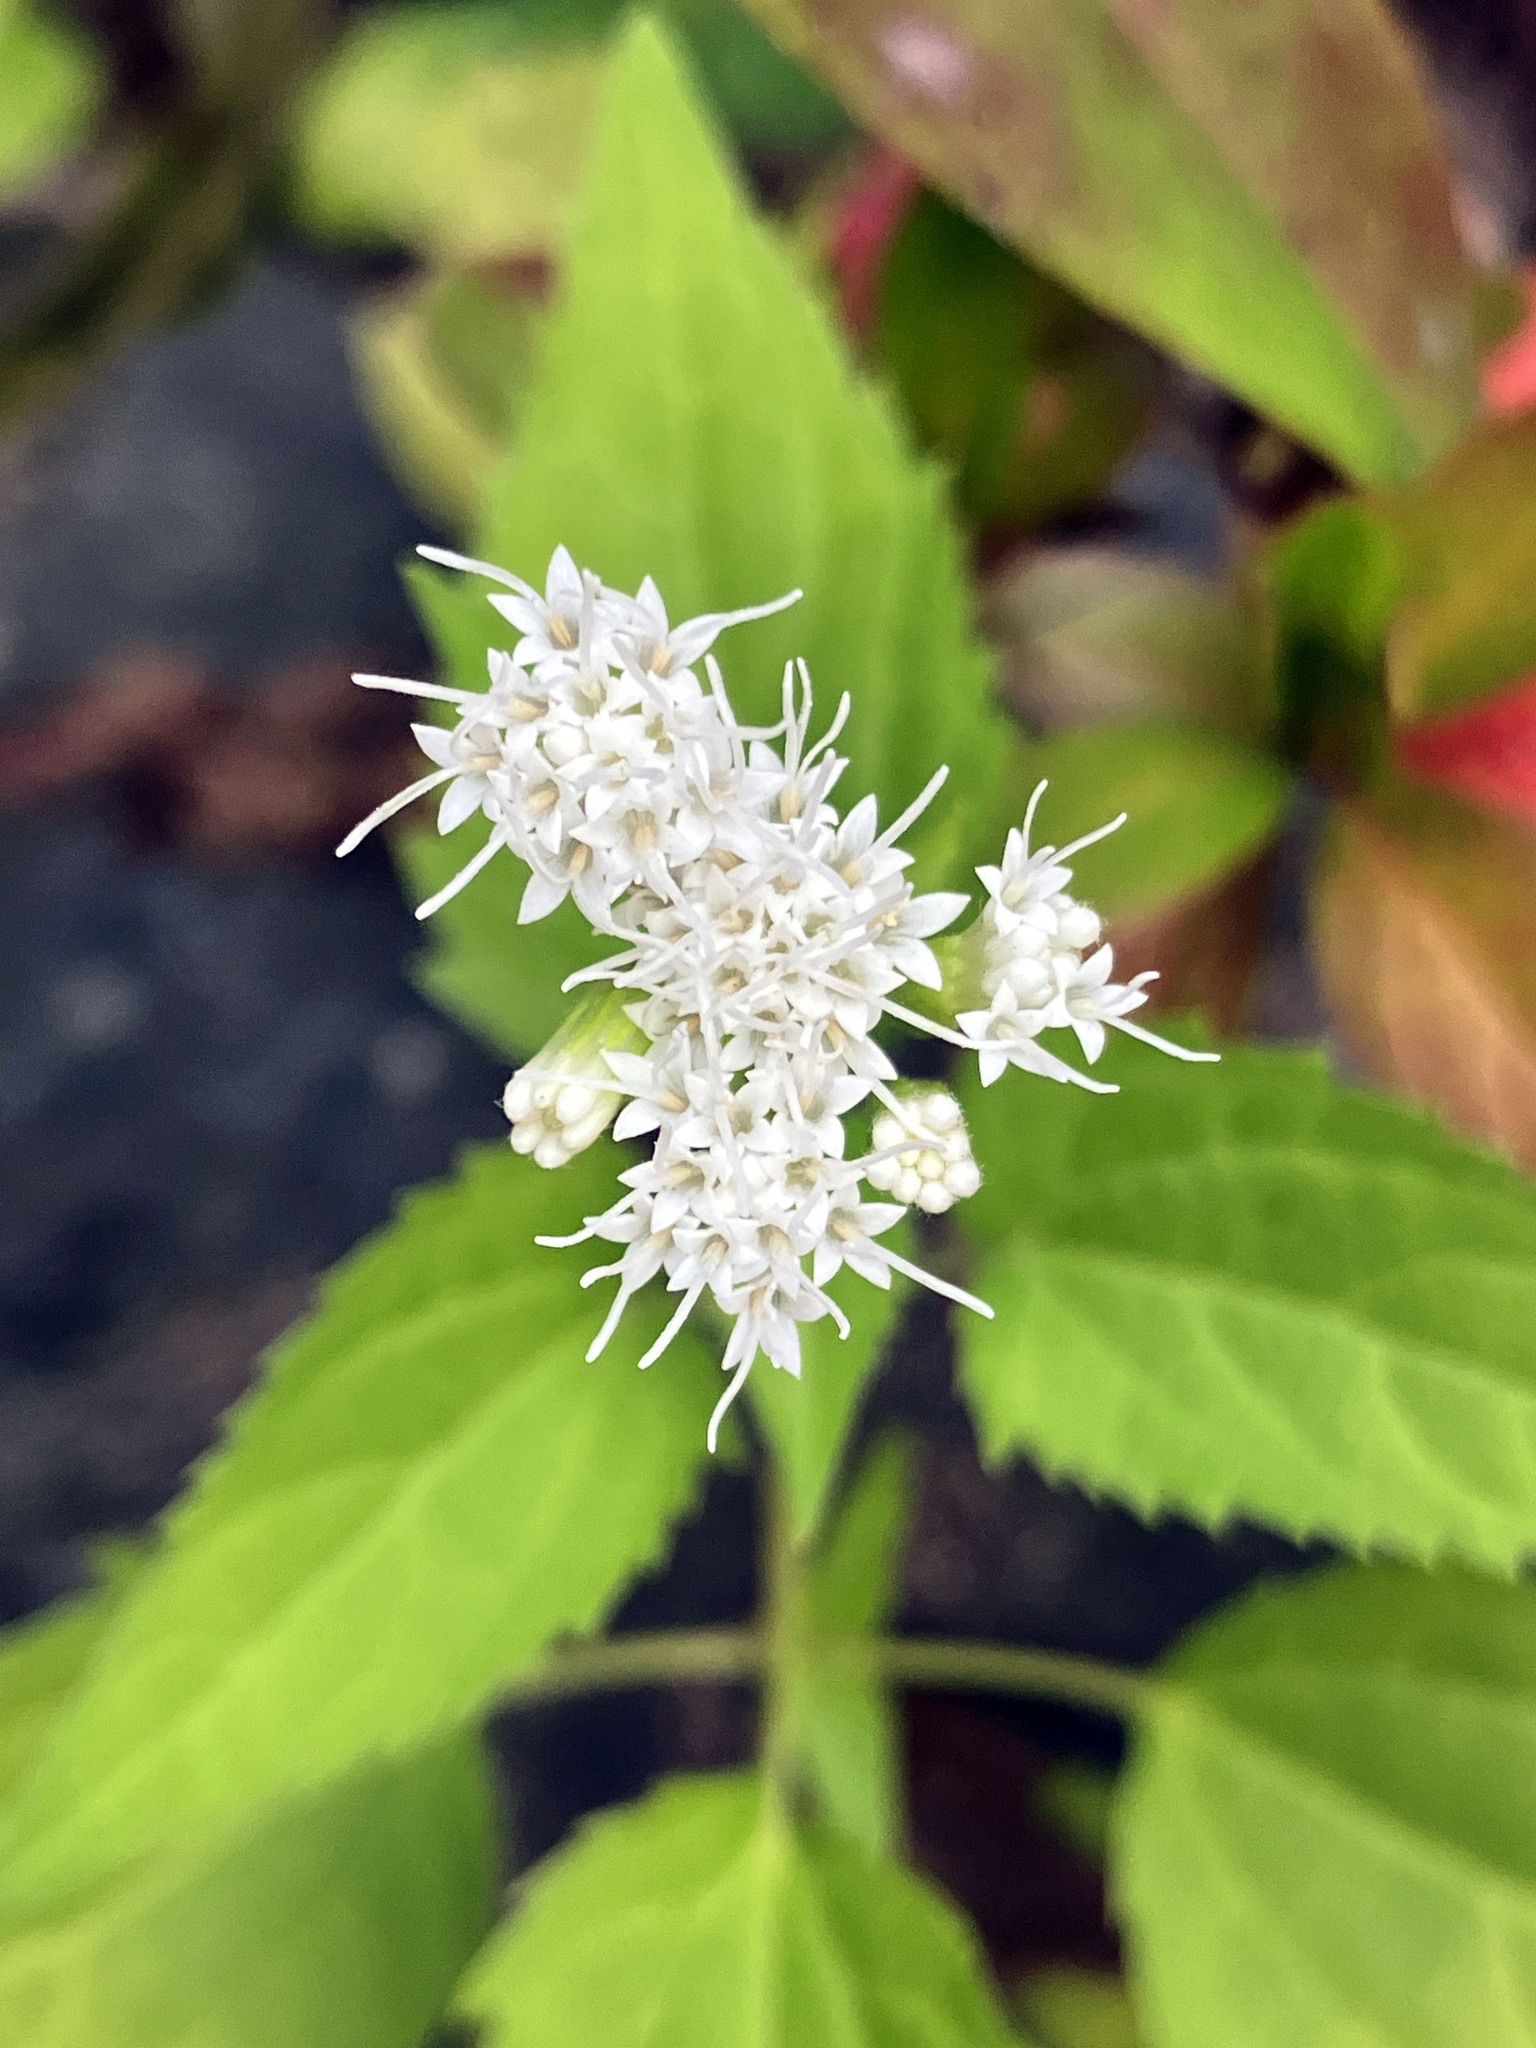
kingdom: Plantae
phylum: Tracheophyta
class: Magnoliopsida
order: Asterales
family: Asteraceae
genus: Ageratina
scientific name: Ageratina altissima
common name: White snakeroot
